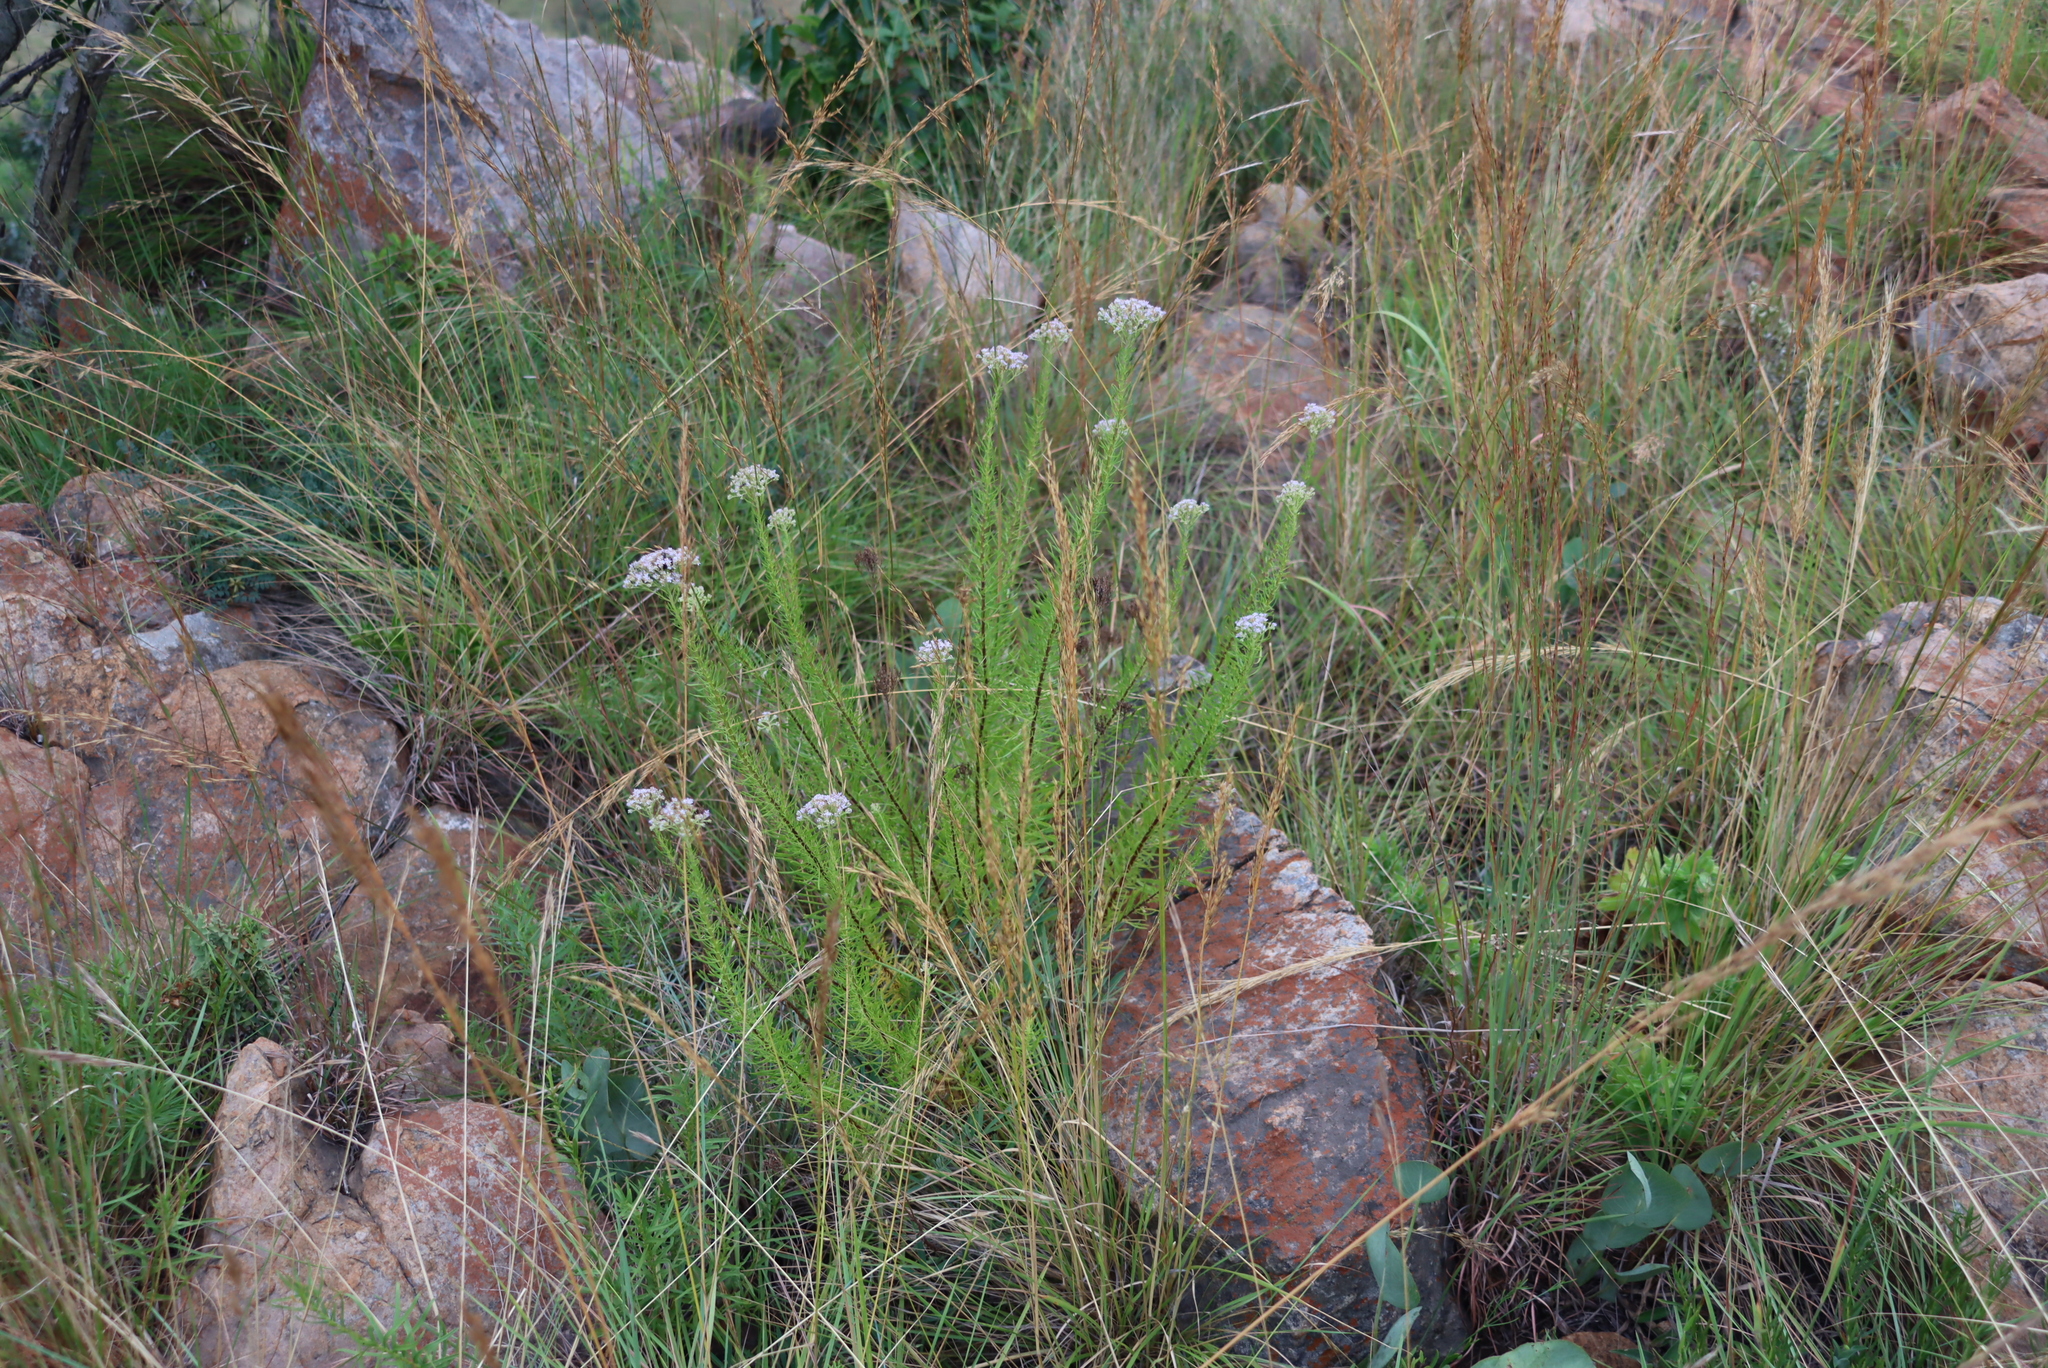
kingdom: Plantae
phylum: Tracheophyta
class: Magnoliopsida
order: Lamiales
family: Scrophulariaceae
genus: Tetraselago
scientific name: Tetraselago natalensis
